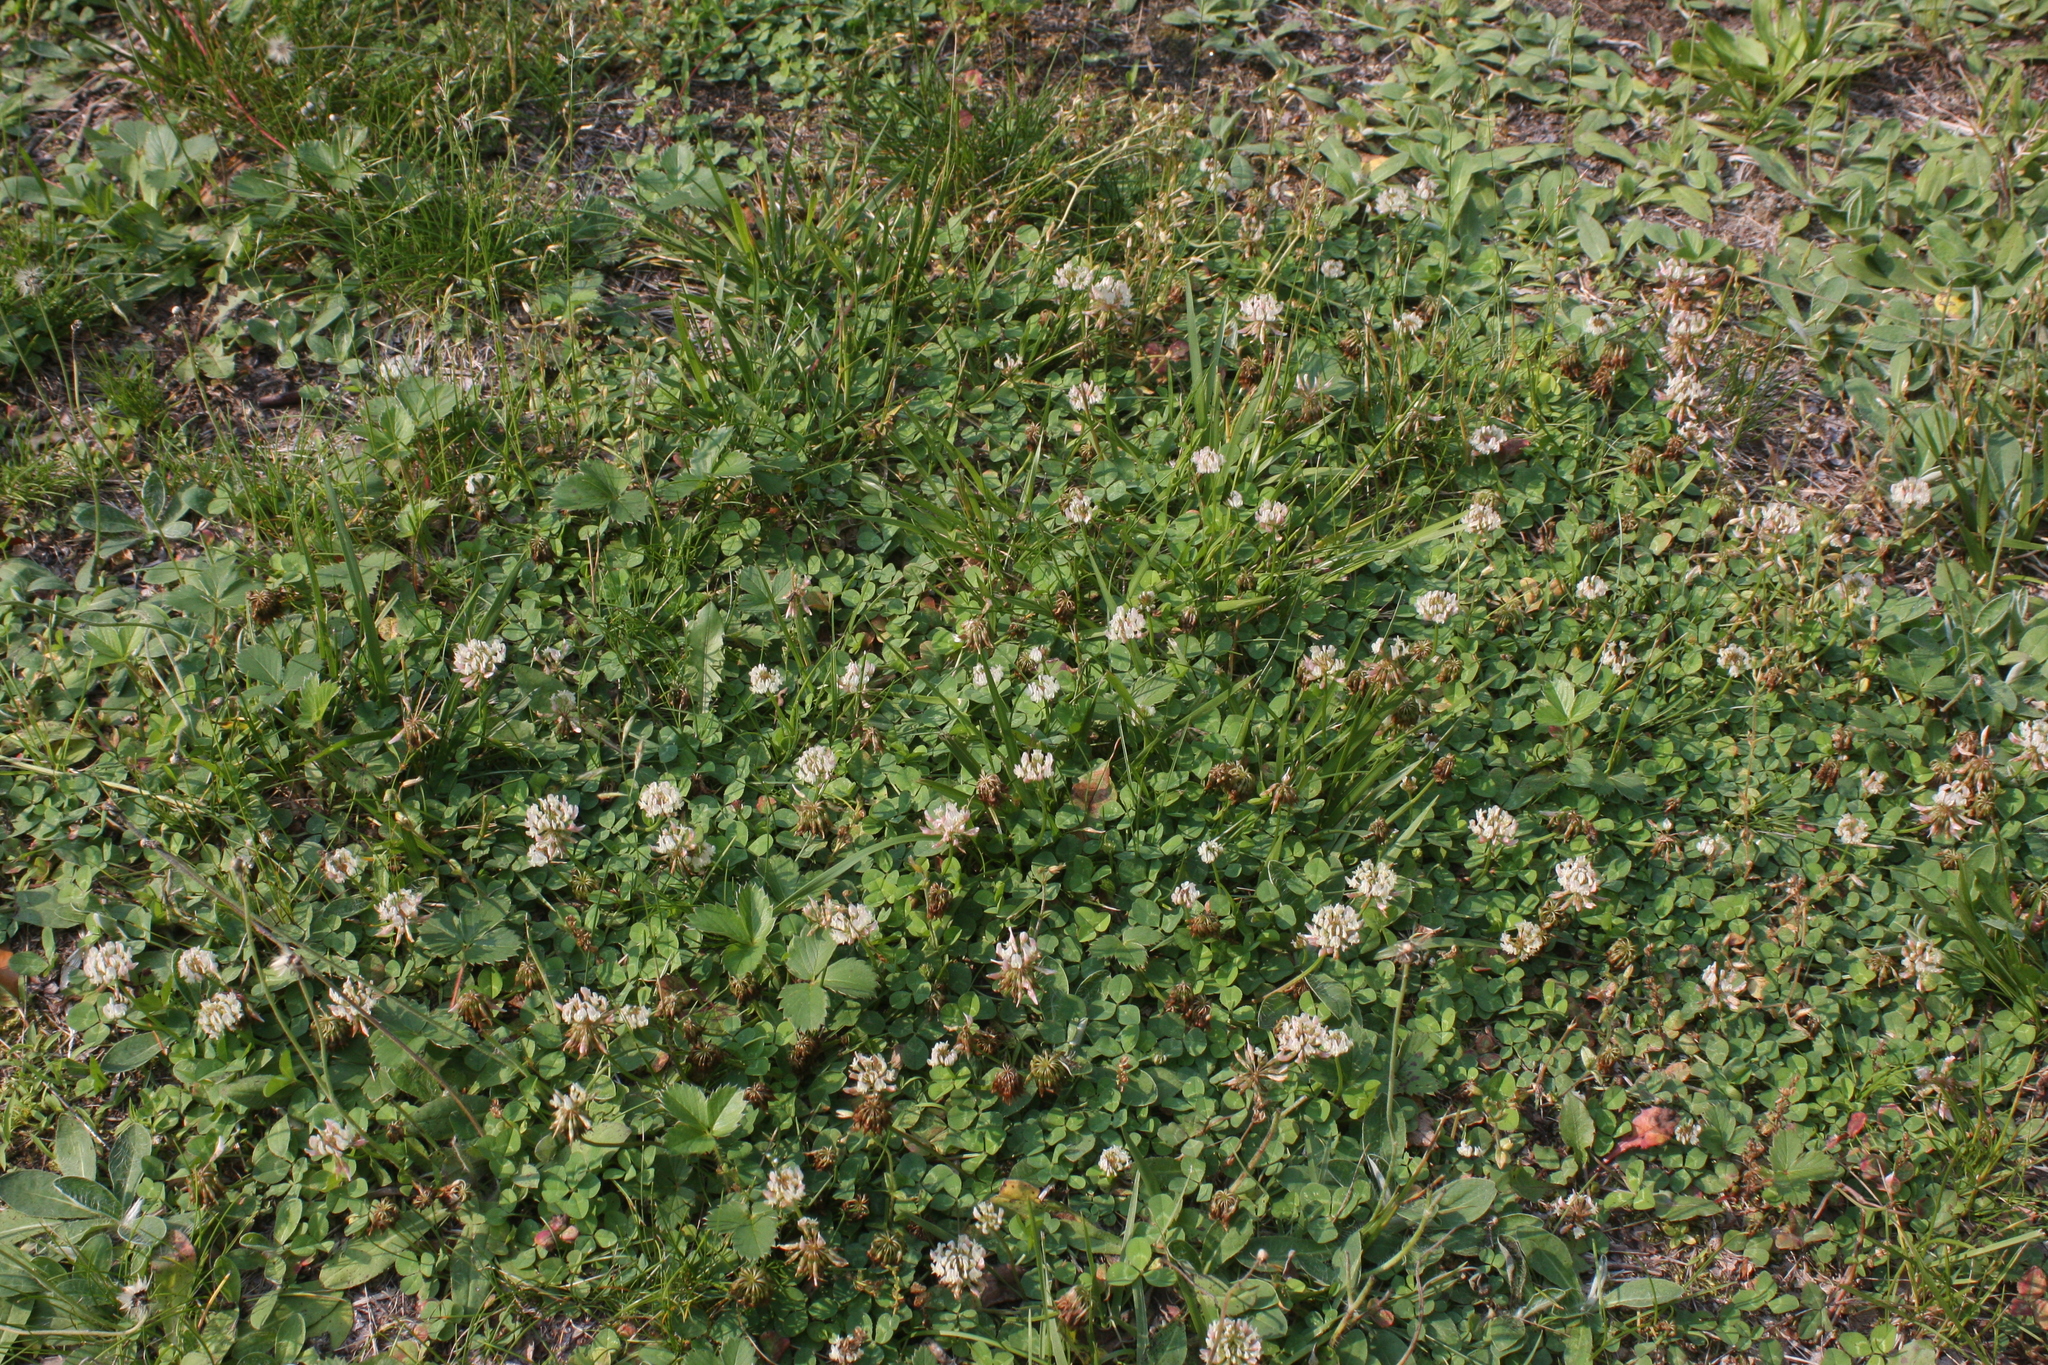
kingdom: Plantae
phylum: Tracheophyta
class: Magnoliopsida
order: Fabales
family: Fabaceae
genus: Trifolium
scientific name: Trifolium repens
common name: White clover
